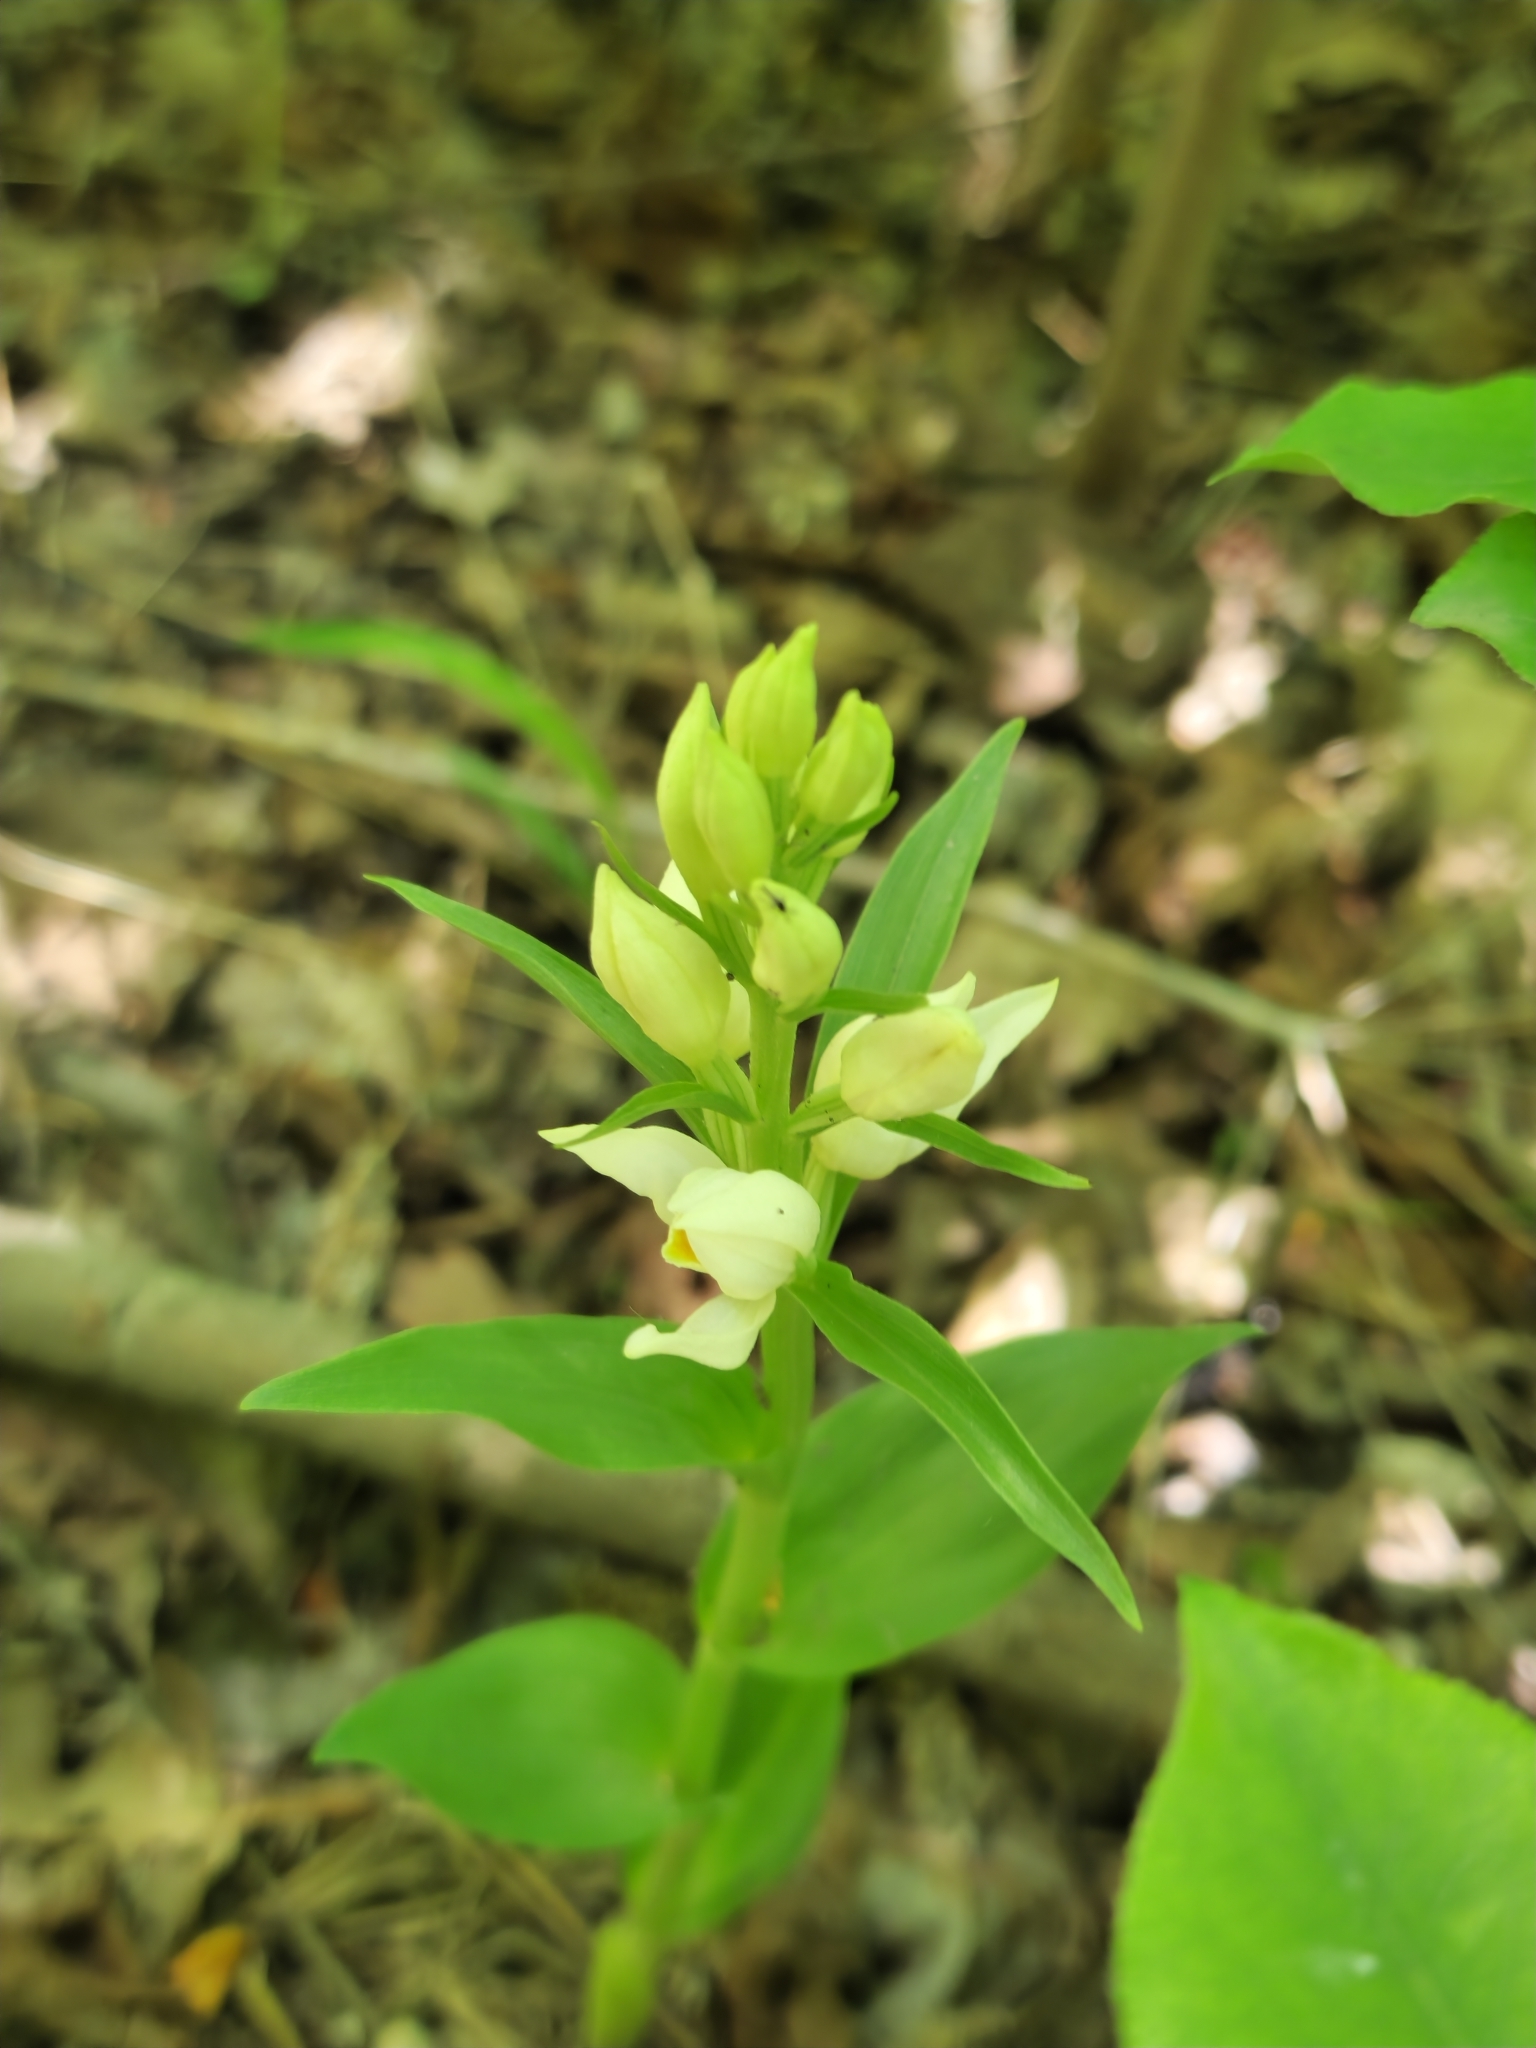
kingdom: Plantae
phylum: Tracheophyta
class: Liliopsida
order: Asparagales
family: Orchidaceae
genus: Cephalanthera
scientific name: Cephalanthera damasonium
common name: White helleborine
